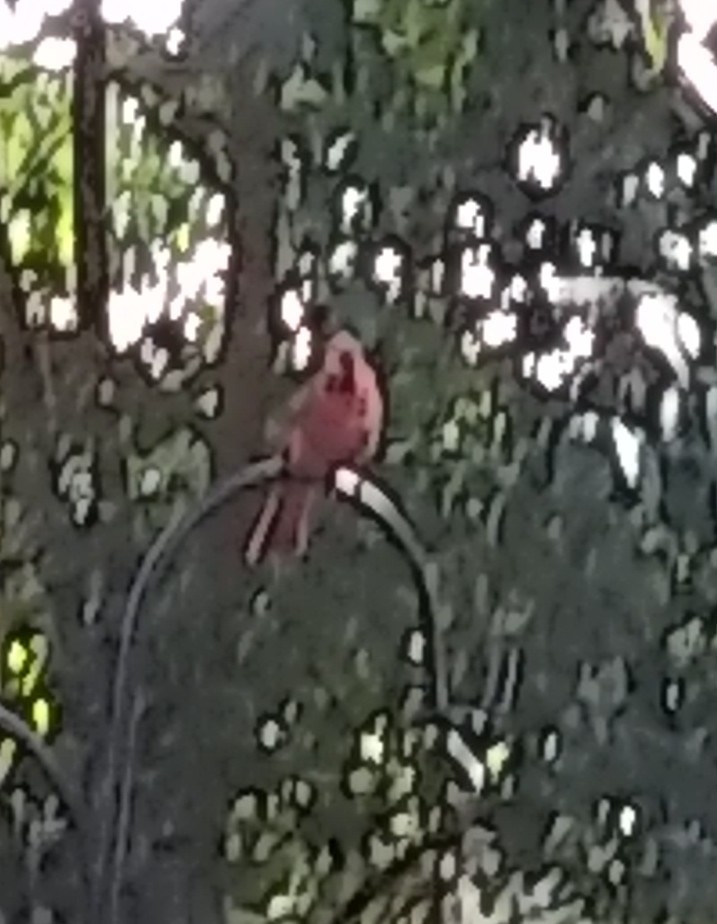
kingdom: Animalia
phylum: Chordata
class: Aves
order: Passeriformes
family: Cardinalidae
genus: Cardinalis
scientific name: Cardinalis cardinalis
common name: Northern cardinal
